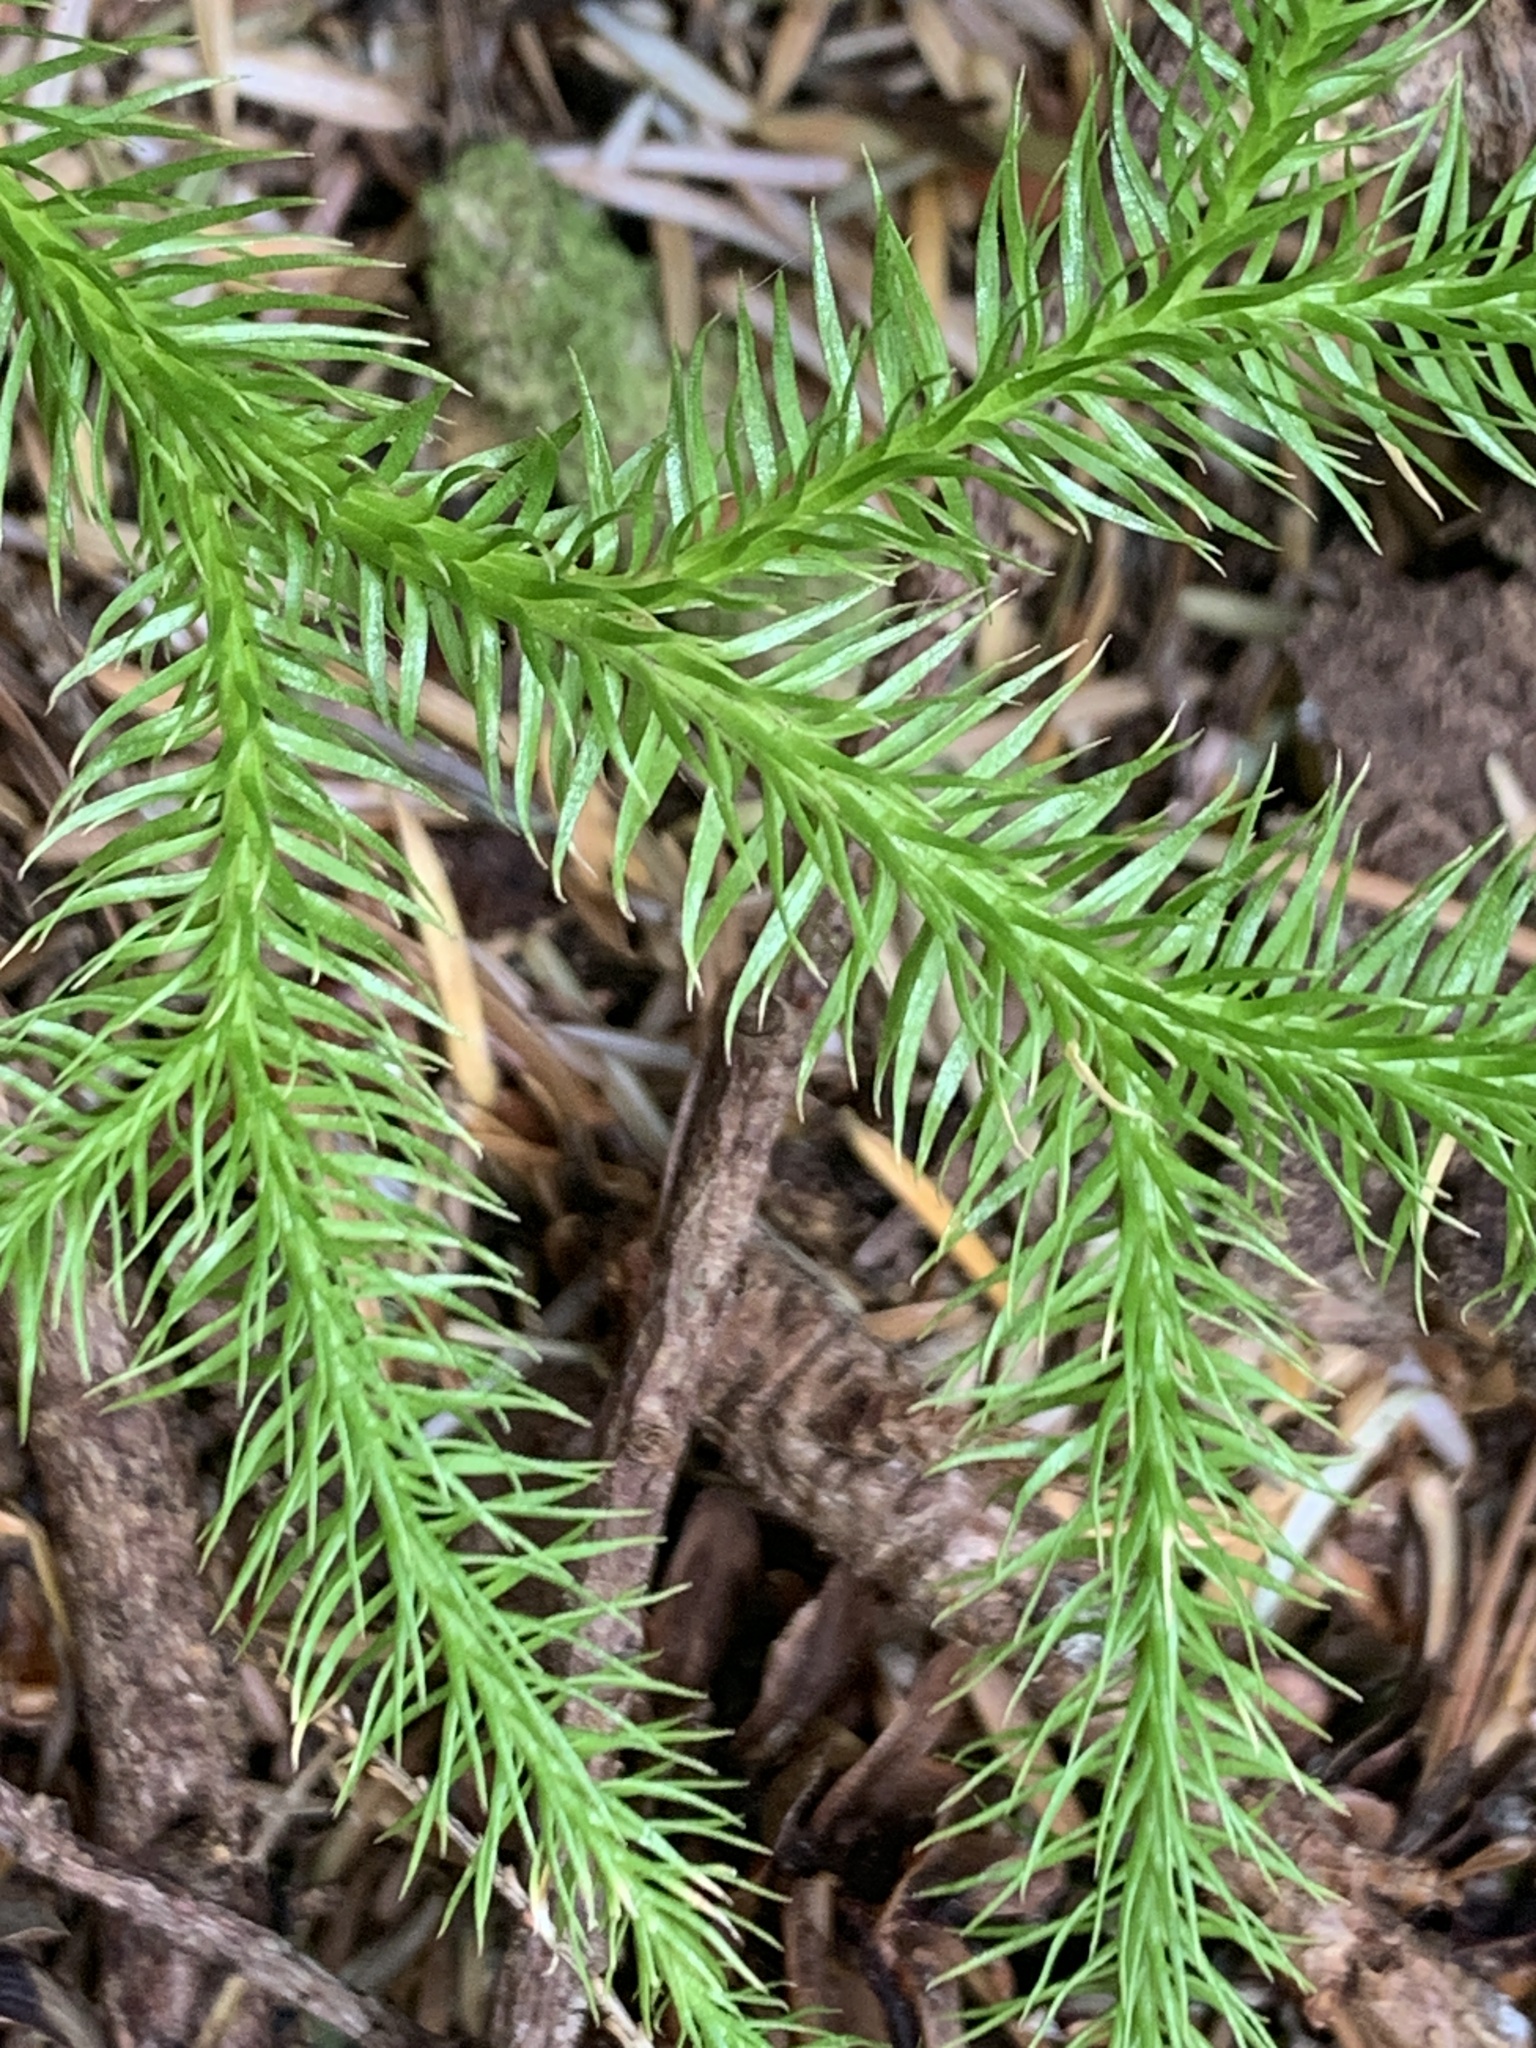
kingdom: Plantae
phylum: Tracheophyta
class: Lycopodiopsida
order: Lycopodiales
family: Lycopodiaceae
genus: Lycopodium
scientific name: Lycopodium clavatum
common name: Stag's-horn clubmoss
